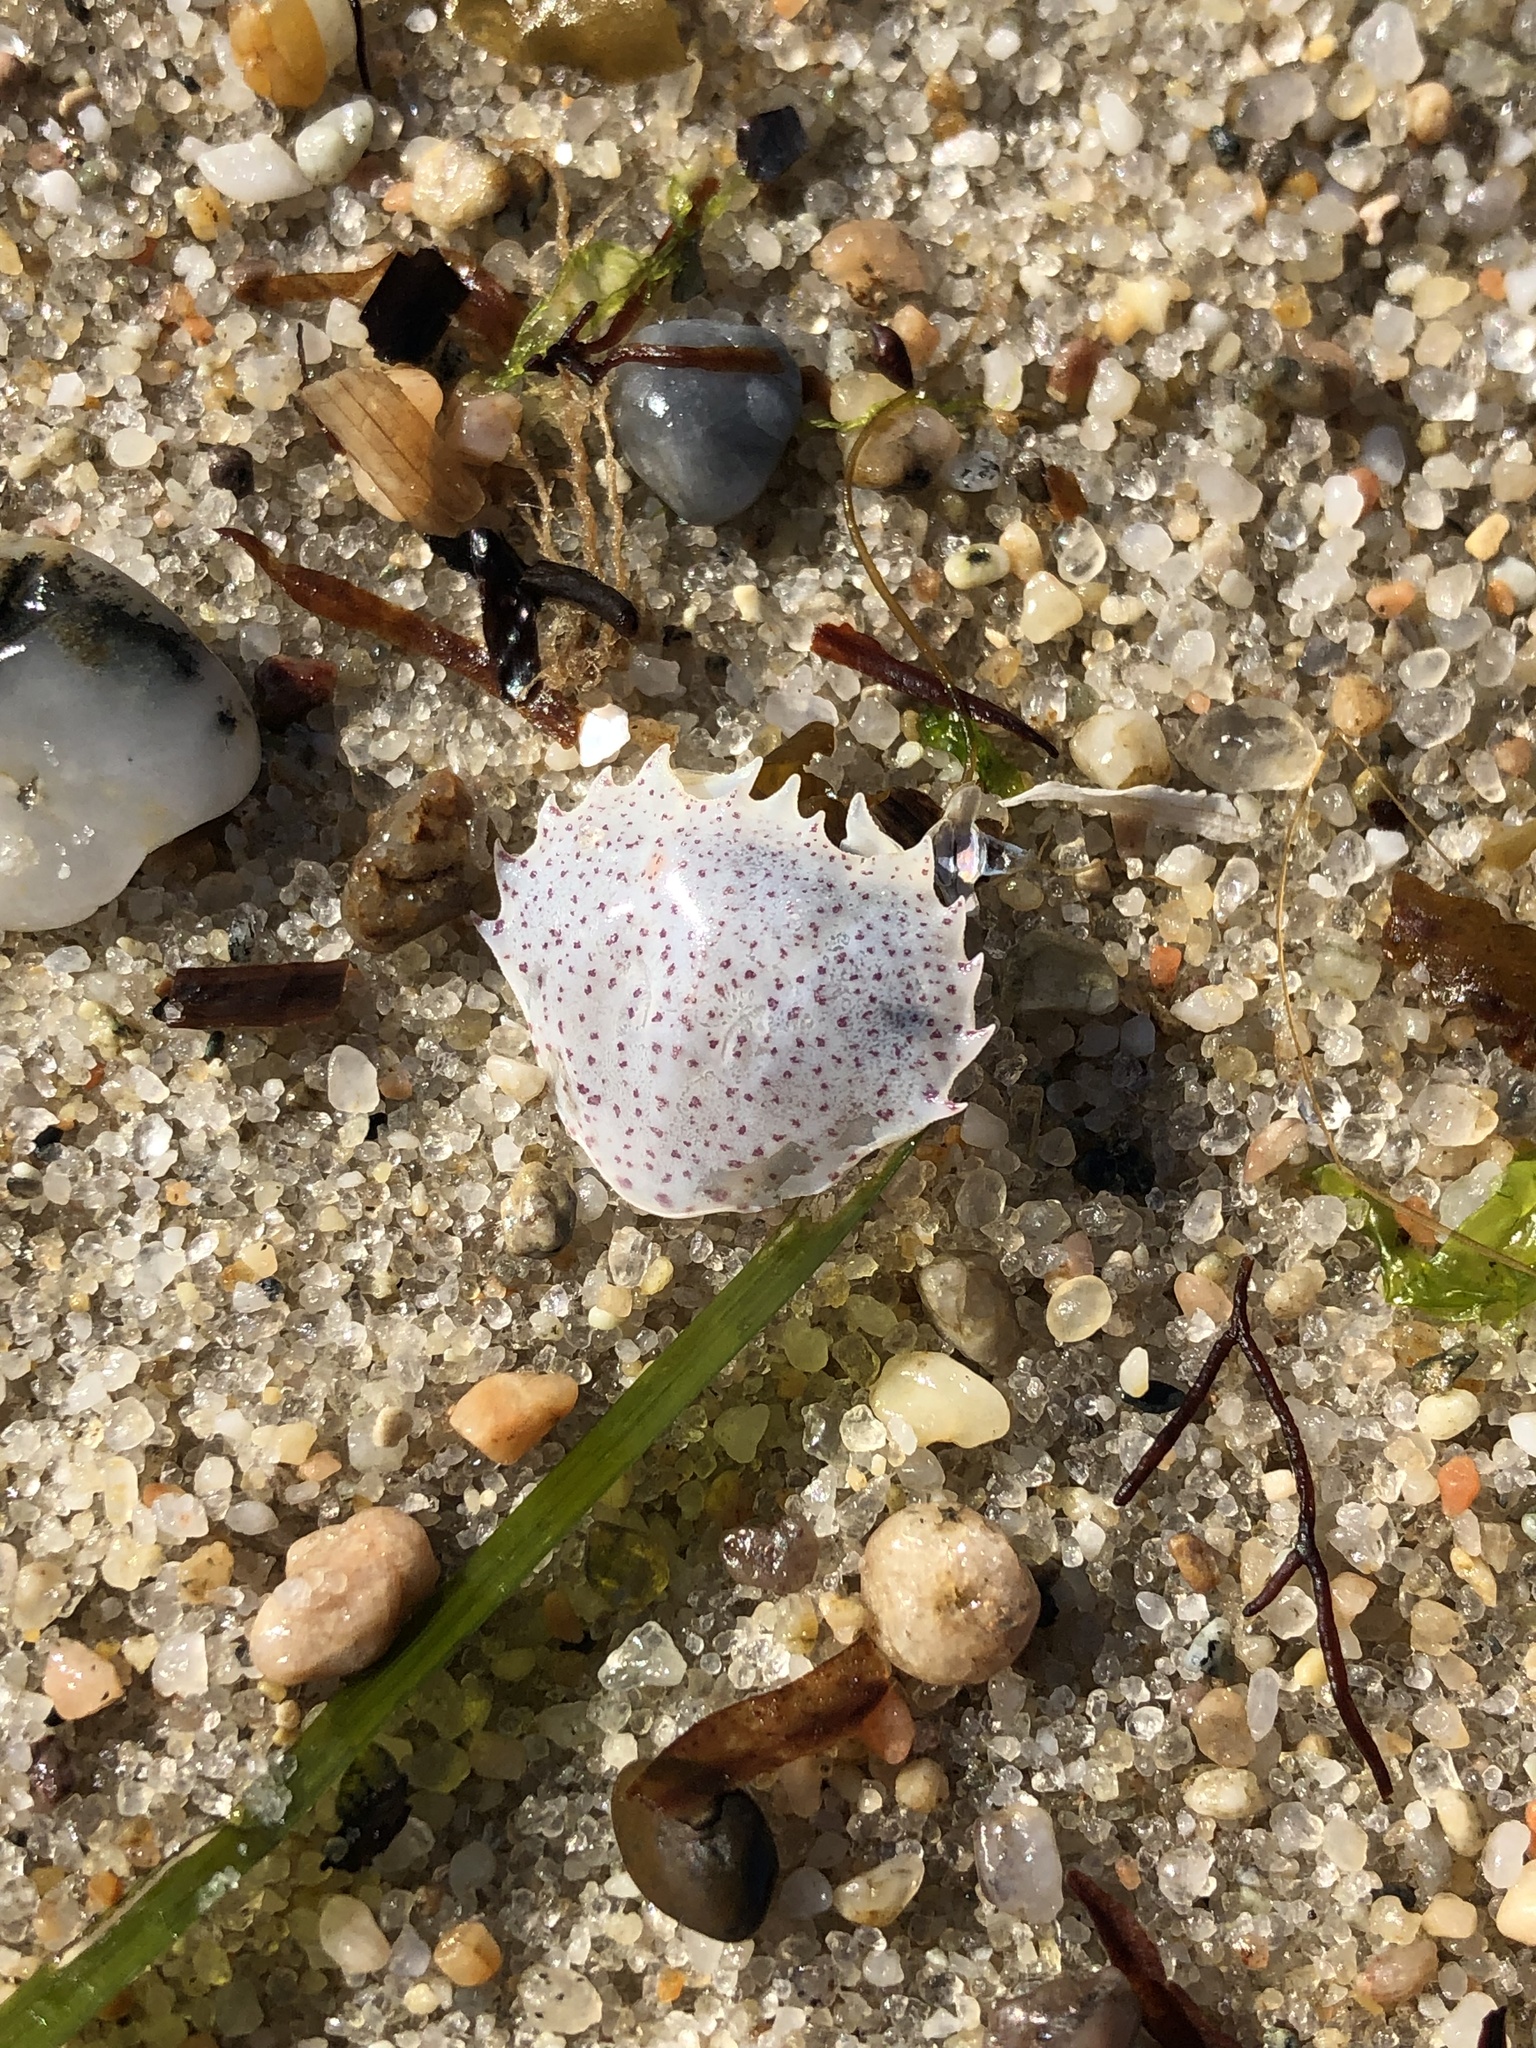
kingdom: Animalia
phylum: Arthropoda
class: Malacostraca
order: Decapoda
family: Ovalipidae
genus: Ovalipes
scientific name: Ovalipes ocellatus
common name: Lady crab
